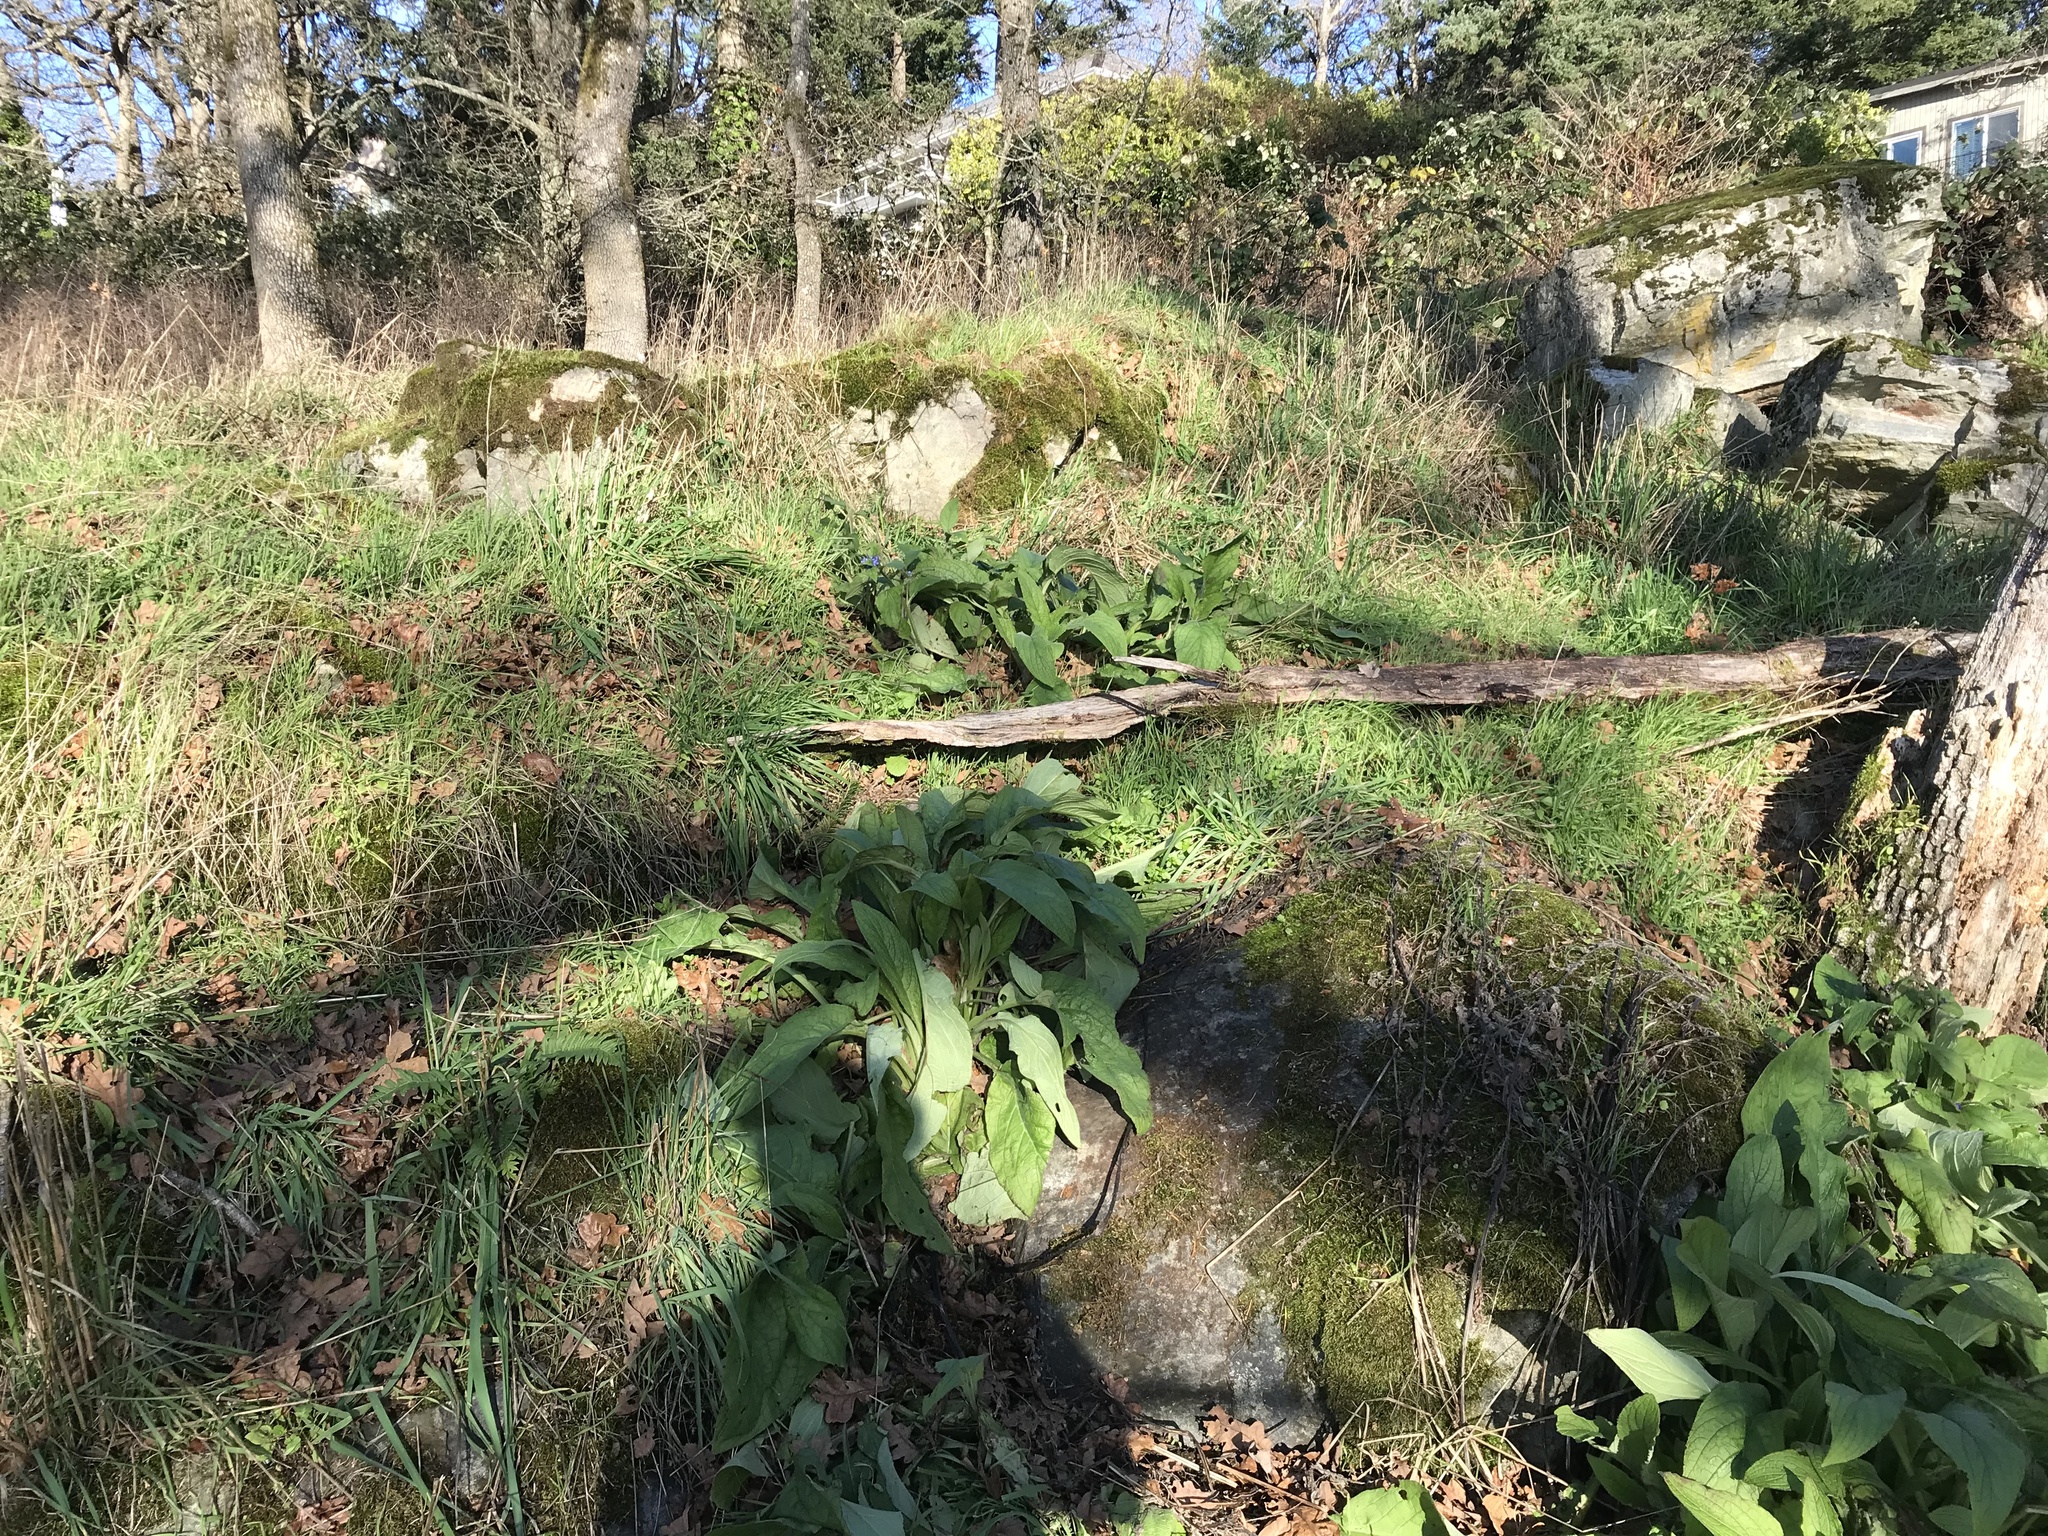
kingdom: Plantae
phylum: Tracheophyta
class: Magnoliopsida
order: Boraginales
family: Boraginaceae
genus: Pentaglottis
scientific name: Pentaglottis sempervirens
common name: Green alkanet
